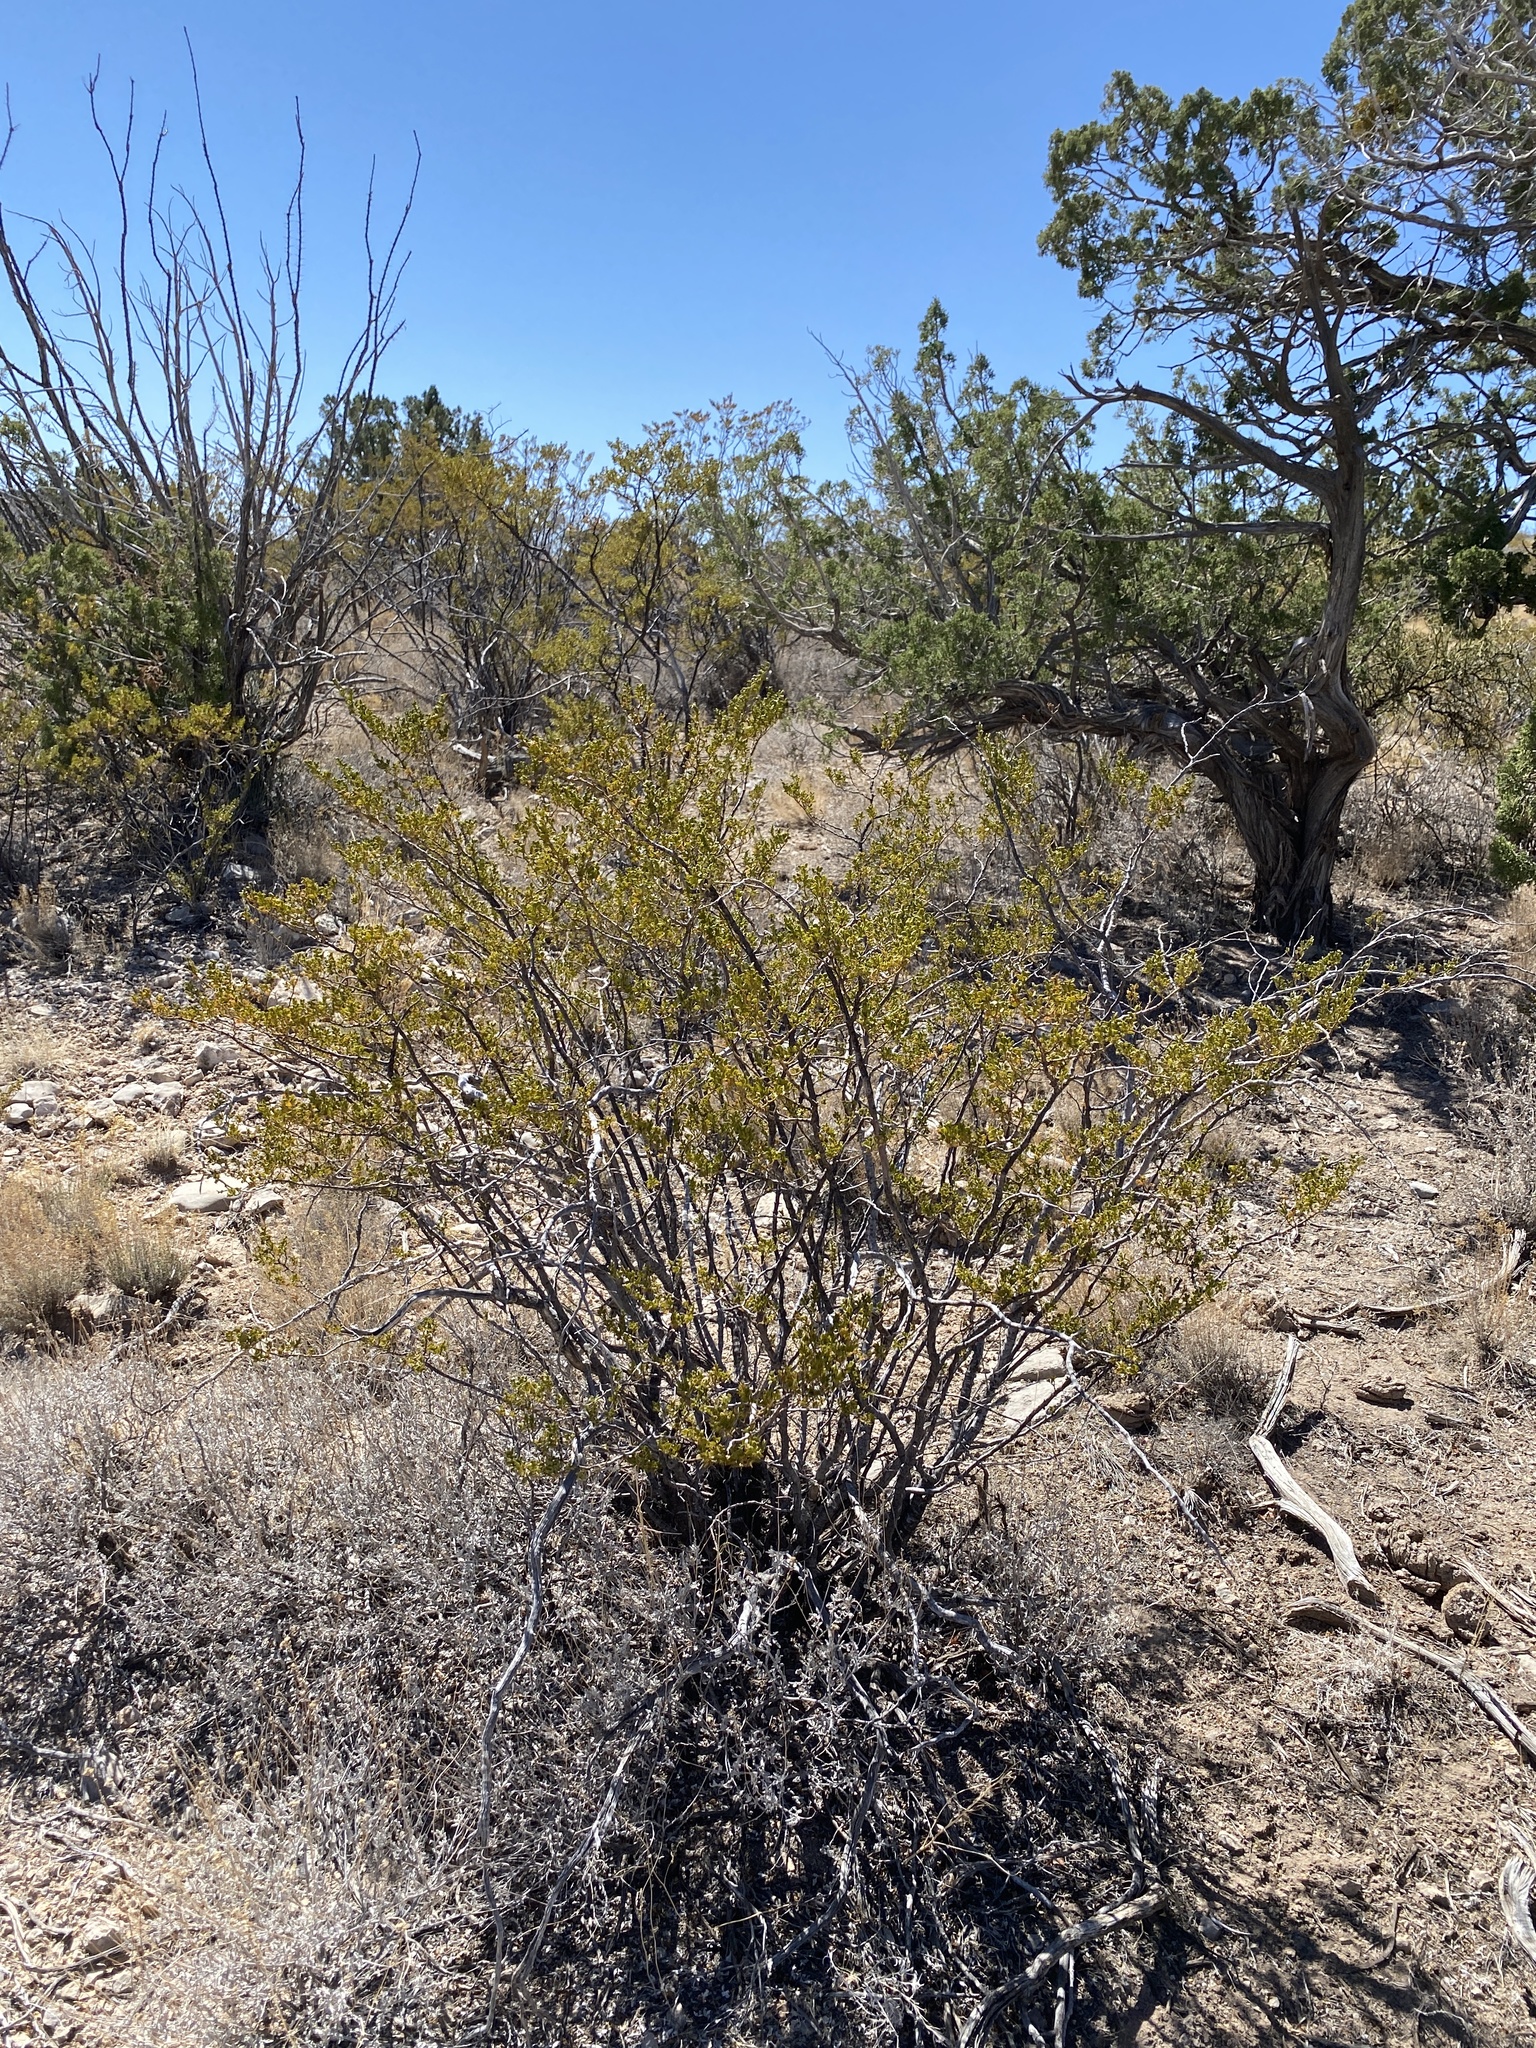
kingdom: Plantae
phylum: Tracheophyta
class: Magnoliopsida
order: Zygophyllales
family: Zygophyllaceae
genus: Larrea
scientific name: Larrea tridentata
